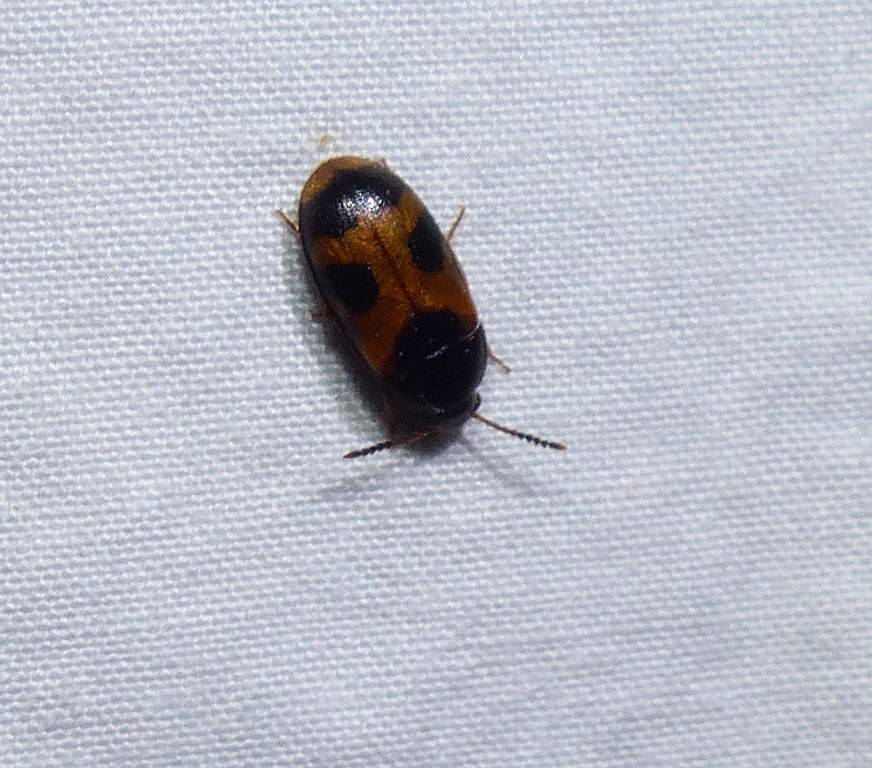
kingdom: Animalia
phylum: Arthropoda
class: Insecta
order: Coleoptera
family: Mycetophagidae
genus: Mycetophagus
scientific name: Mycetophagus punctatus
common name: Hairy fungus beetle
